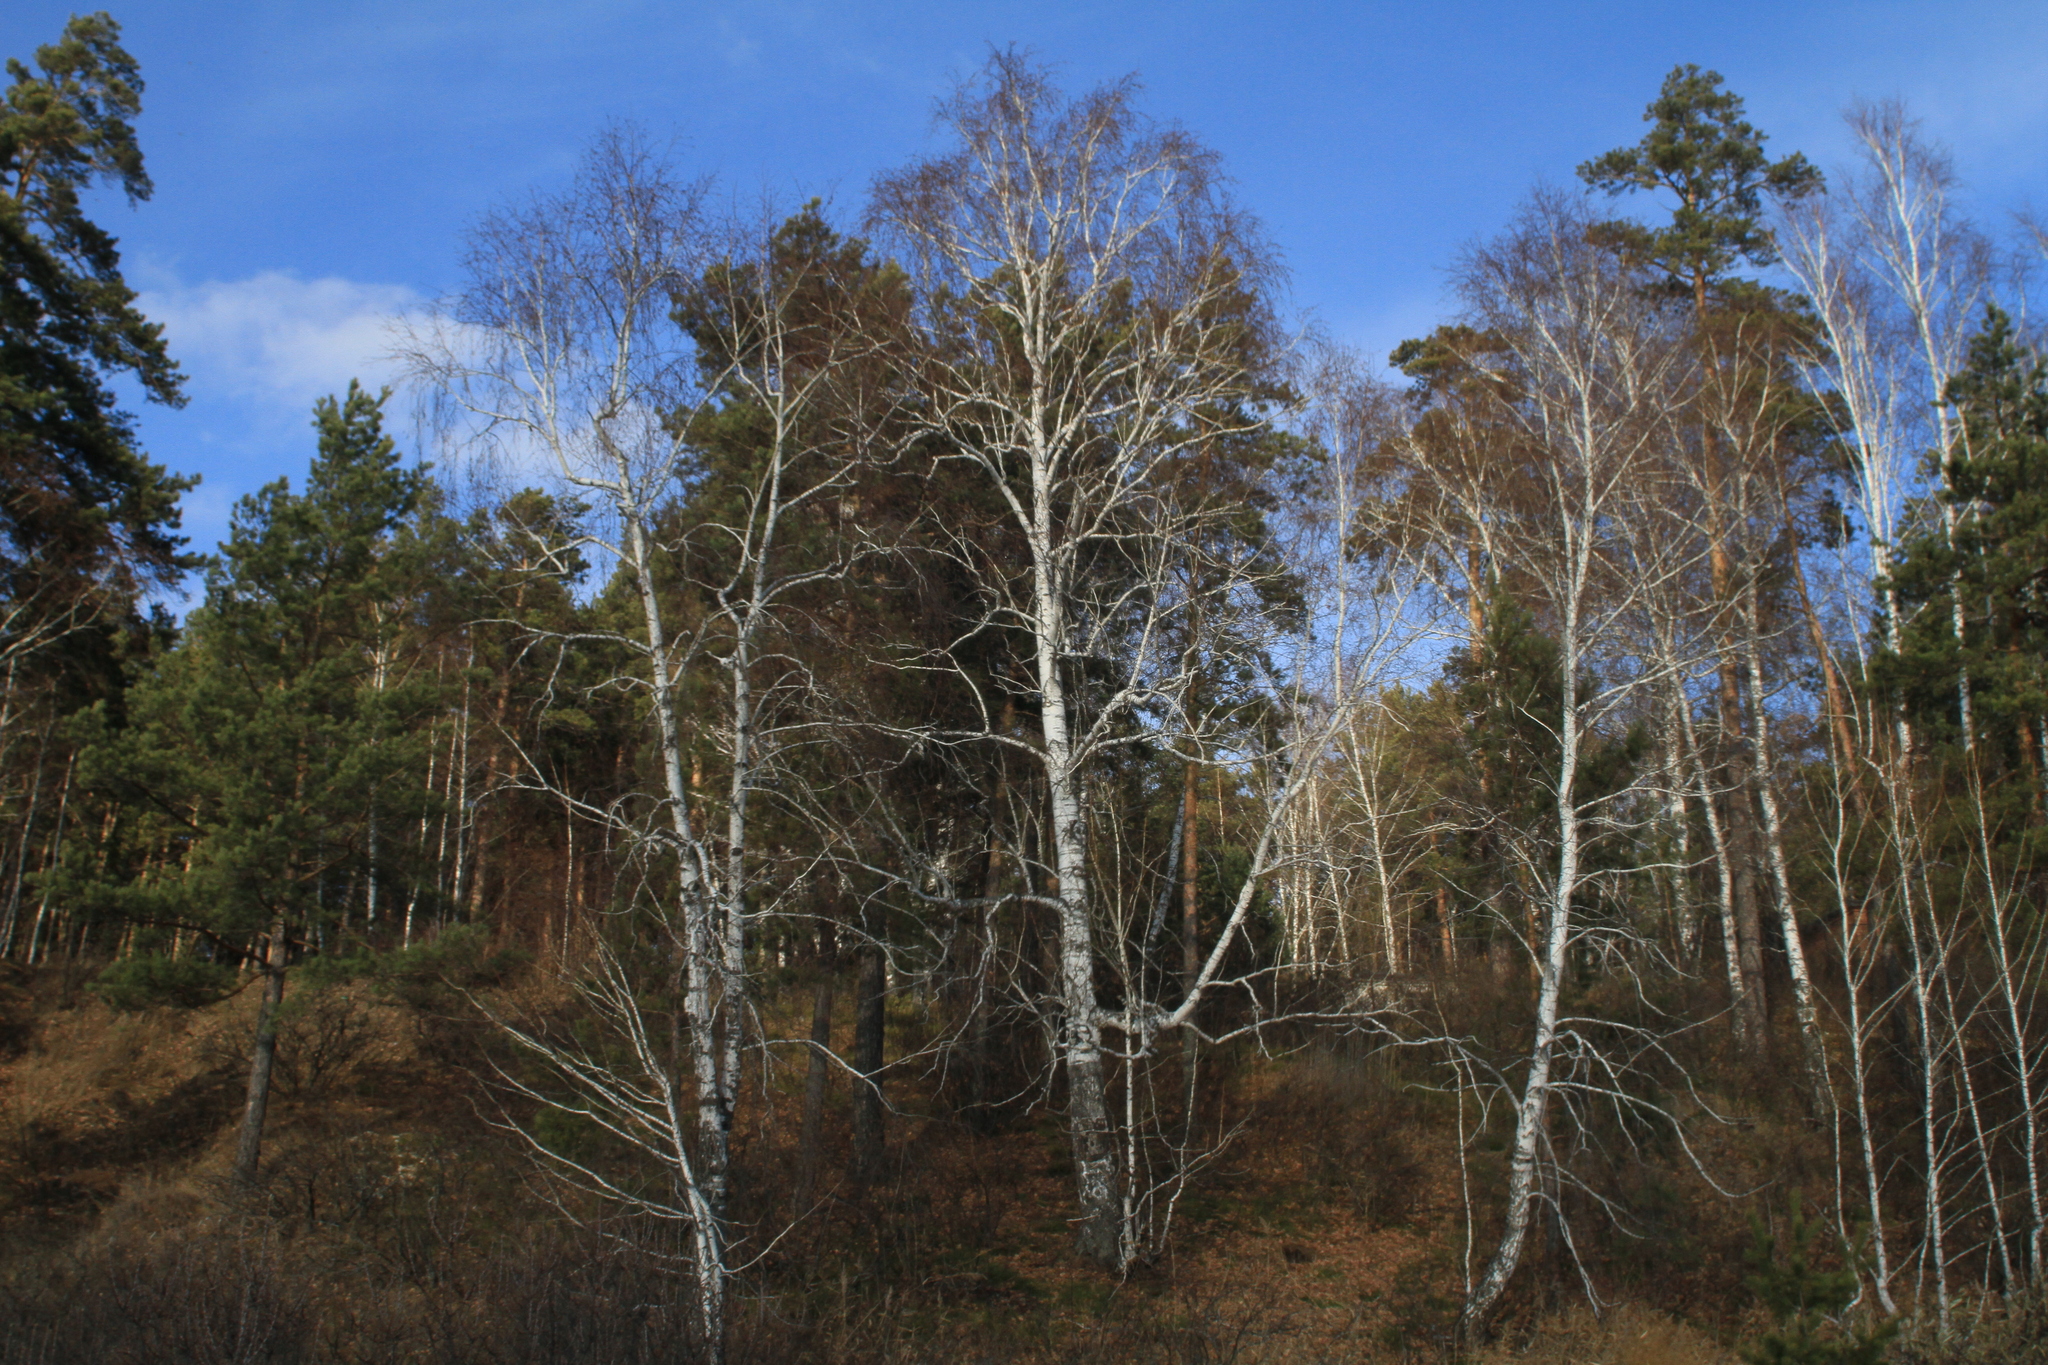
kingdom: Plantae
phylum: Tracheophyta
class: Magnoliopsida
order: Fagales
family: Betulaceae
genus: Betula
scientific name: Betula pendula
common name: Silver birch
